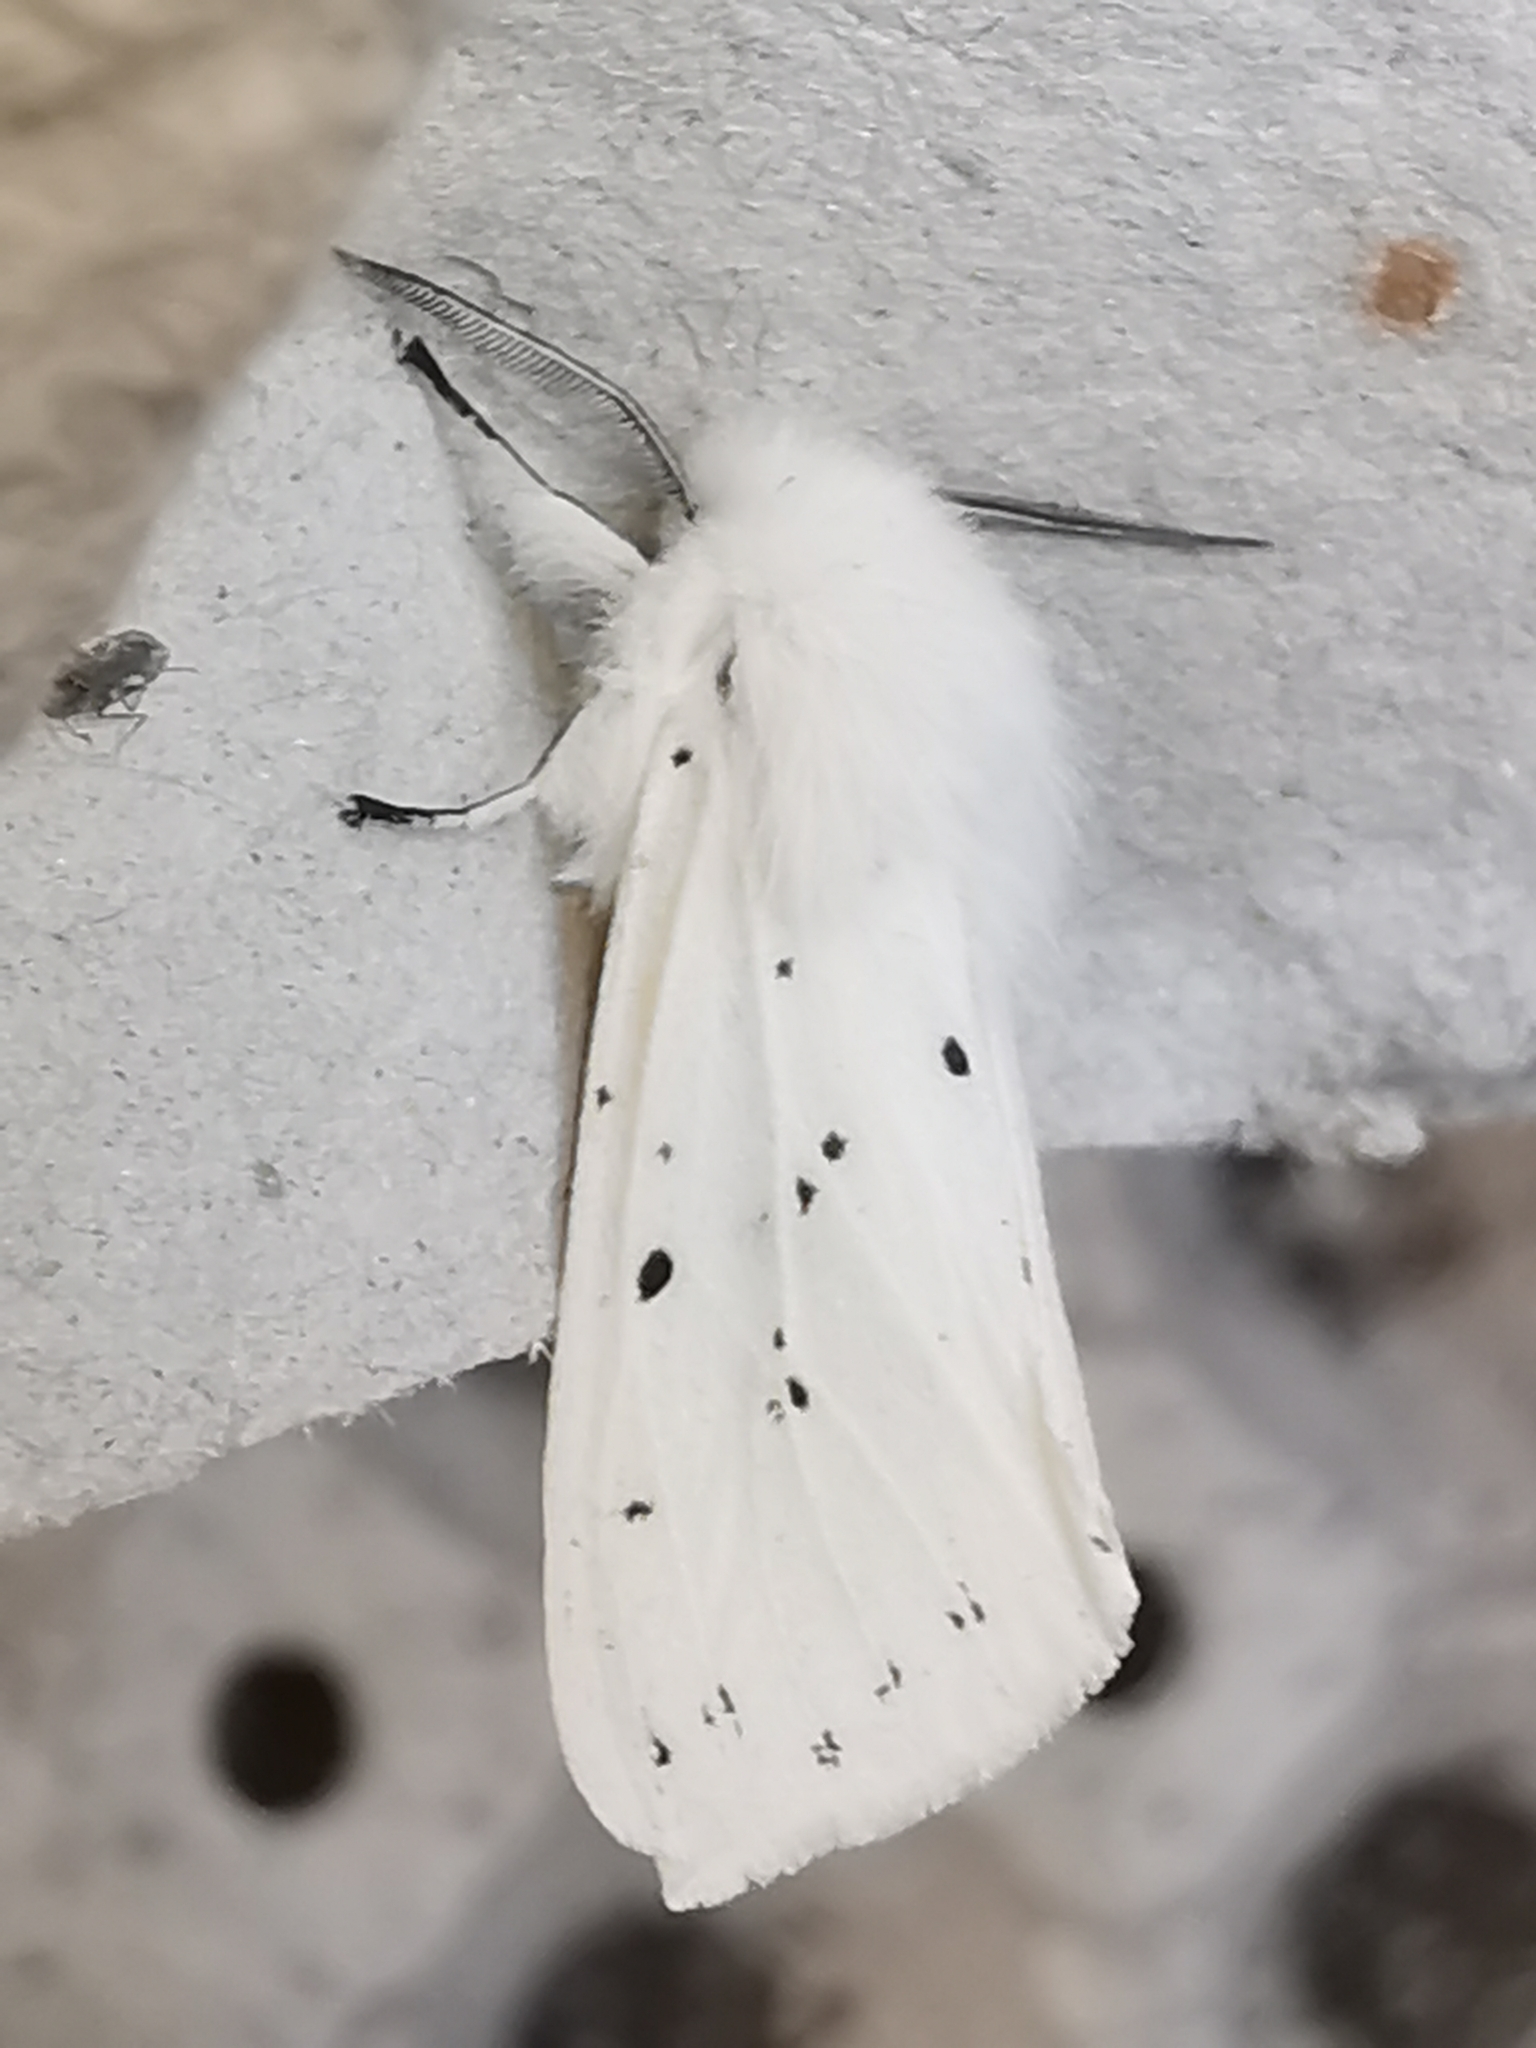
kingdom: Animalia
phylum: Arthropoda
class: Insecta
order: Lepidoptera
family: Erebidae
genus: Spilosoma
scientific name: Spilosoma lubricipeda
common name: White ermine
